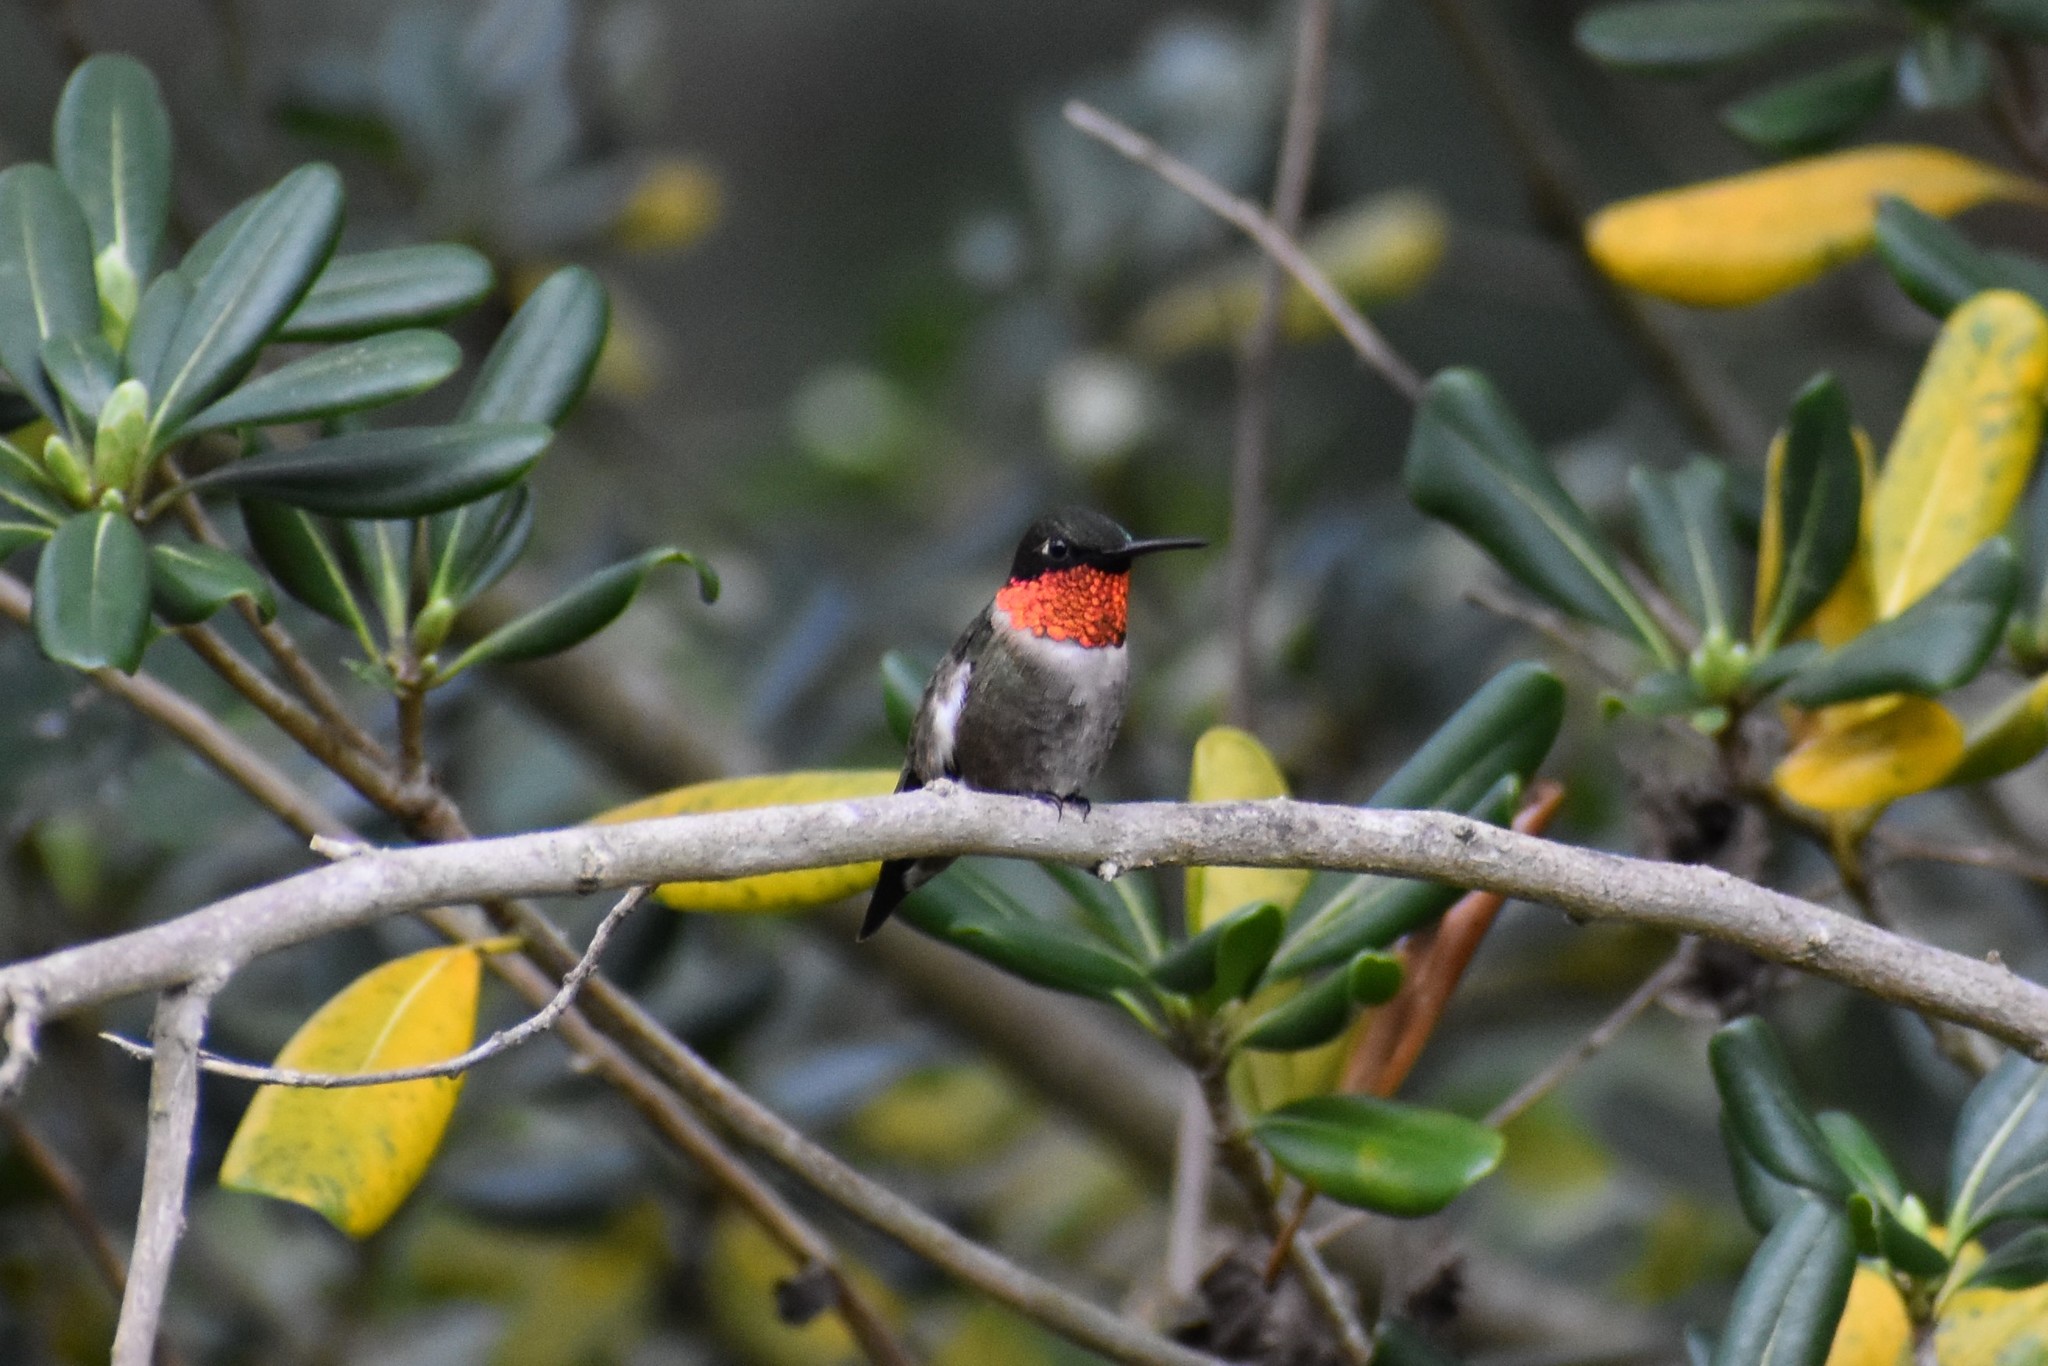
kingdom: Animalia
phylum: Chordata
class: Aves
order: Apodiformes
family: Trochilidae
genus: Archilochus
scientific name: Archilochus colubris
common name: Ruby-throated hummingbird
